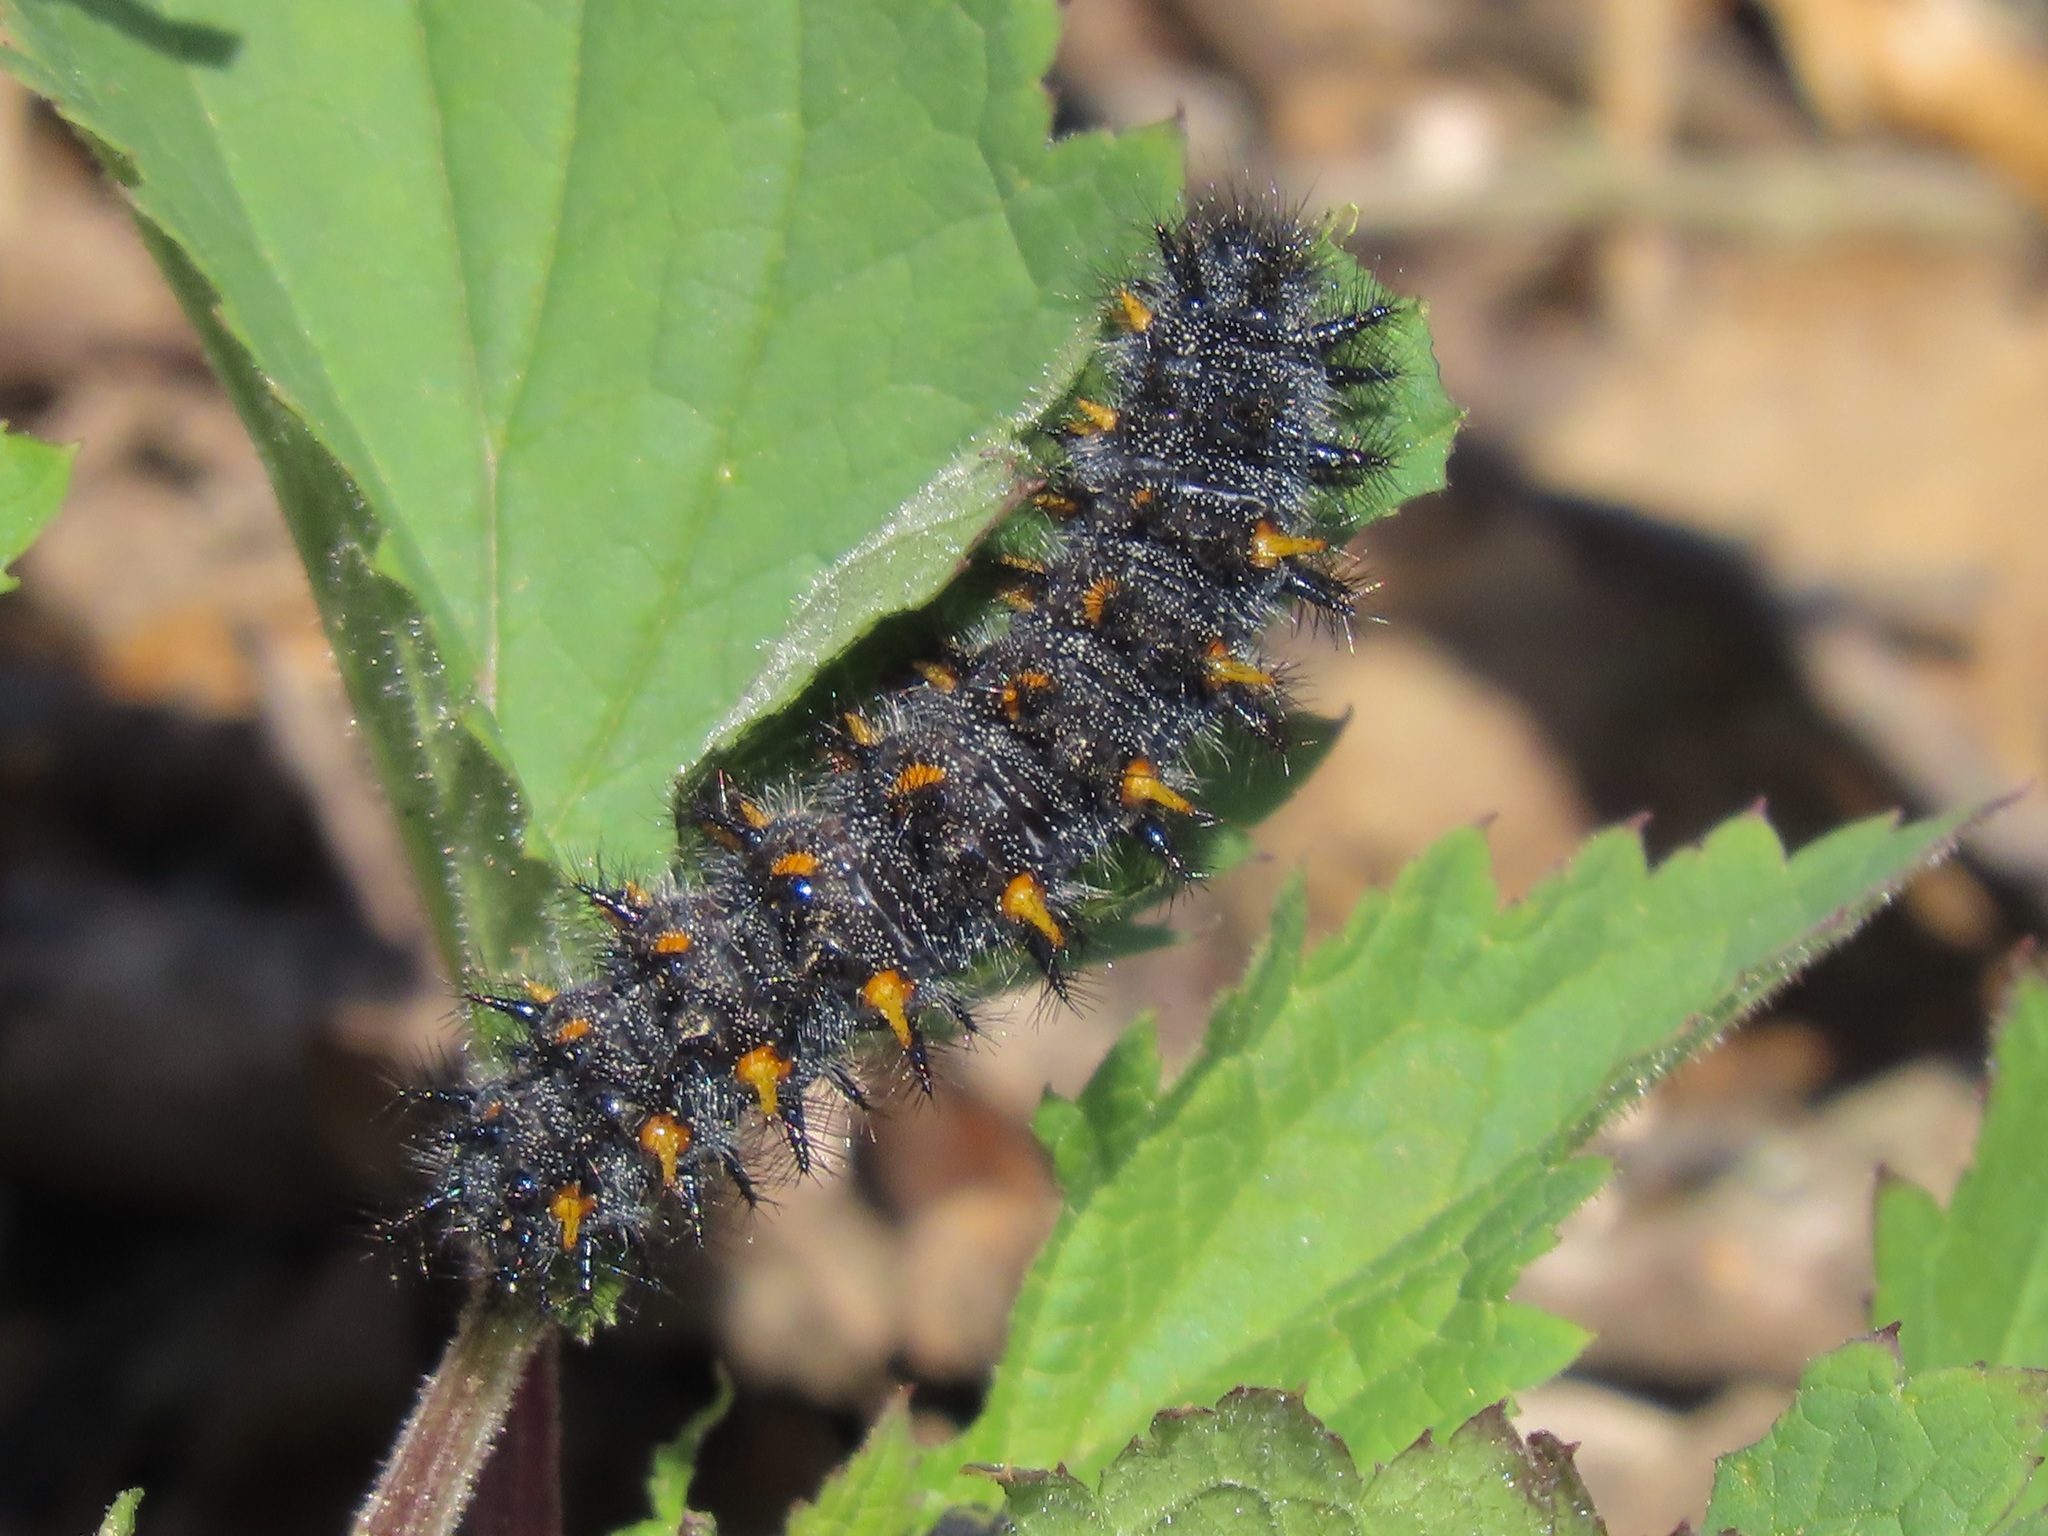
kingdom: Animalia
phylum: Arthropoda
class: Insecta
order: Lepidoptera
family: Nymphalidae
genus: Occidryas
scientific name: Occidryas chalcedona
